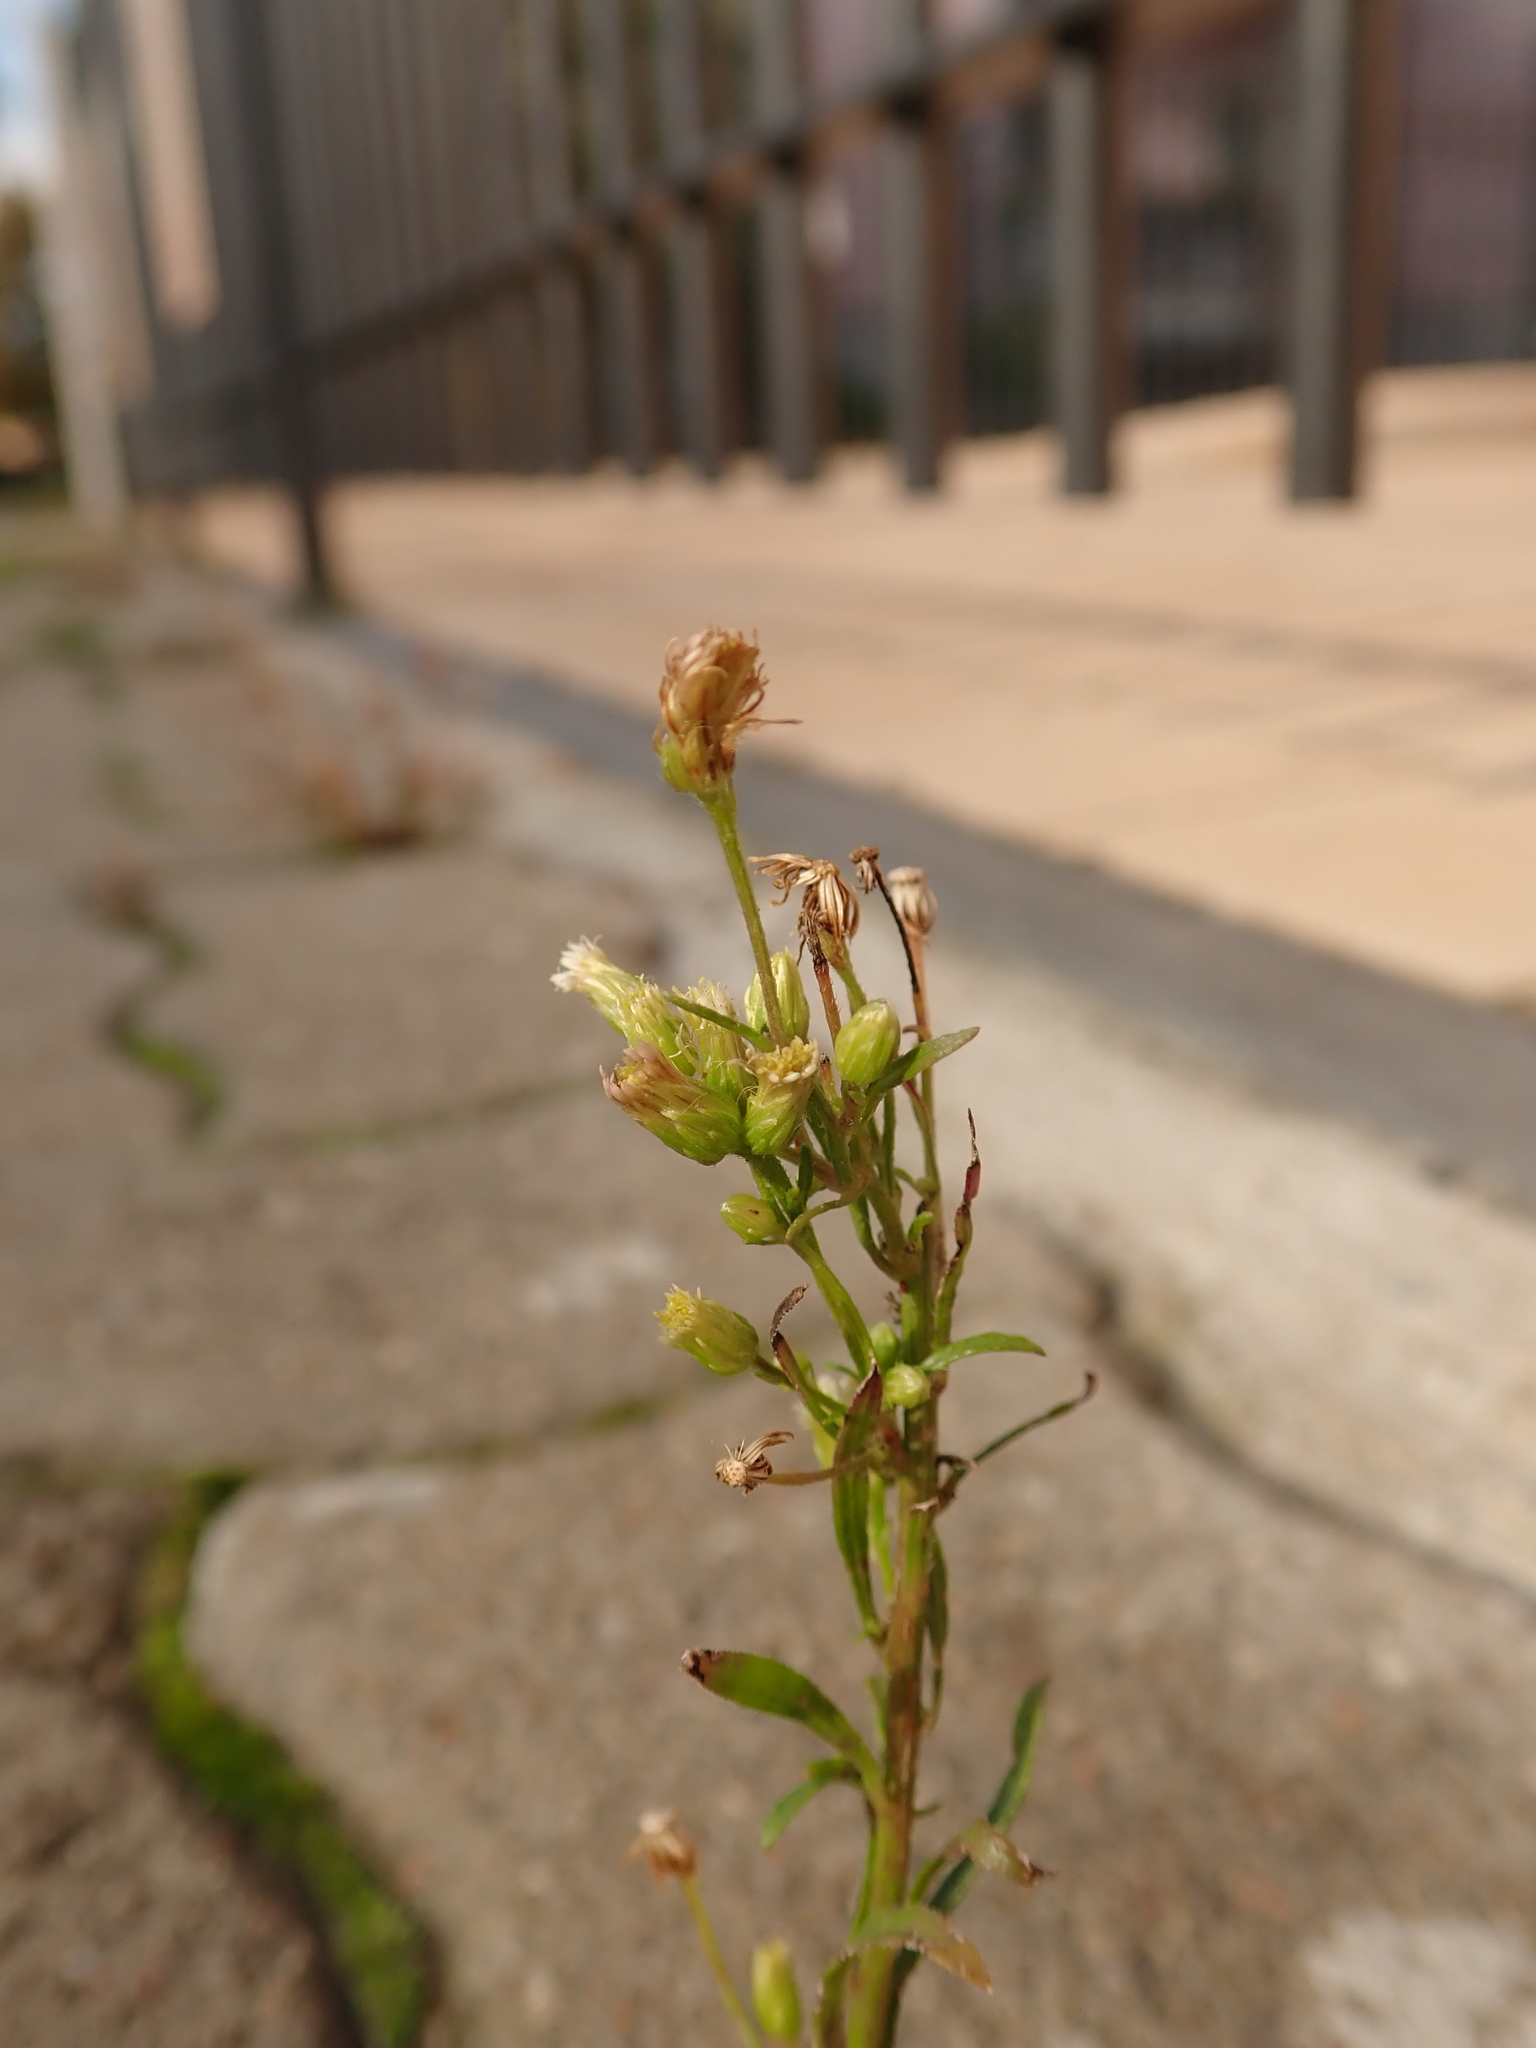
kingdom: Plantae
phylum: Tracheophyta
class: Magnoliopsida
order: Asterales
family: Asteraceae
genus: Erigeron
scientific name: Erigeron canadensis
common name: Canadian fleabane
